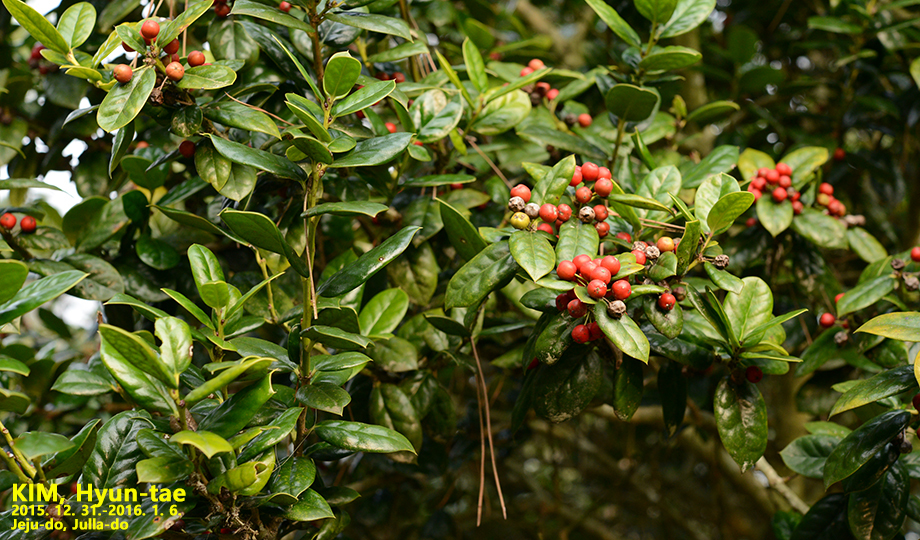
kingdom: Plantae
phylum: Tracheophyta
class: Magnoliopsida
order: Aquifoliales
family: Aquifoliaceae
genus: Ilex
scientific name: Ilex cornuta
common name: Chinese holly
